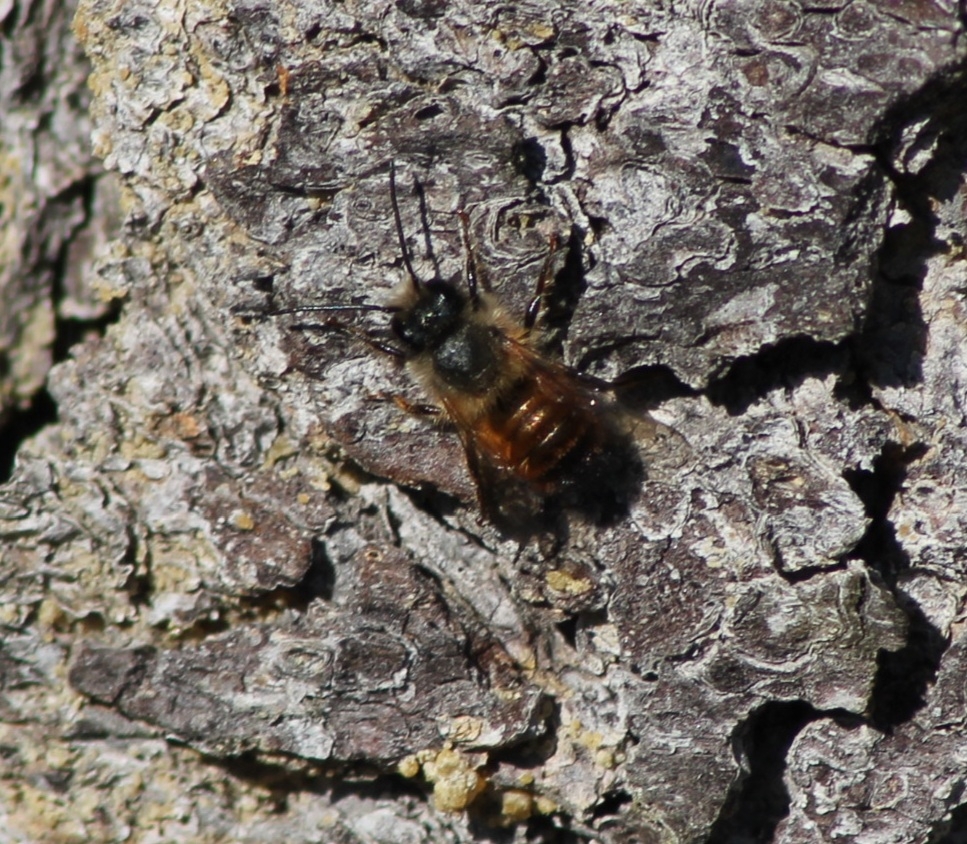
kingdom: Animalia
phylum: Arthropoda
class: Insecta
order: Hymenoptera
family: Megachilidae
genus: Osmia
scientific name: Osmia bicornis
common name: Red mason bee
